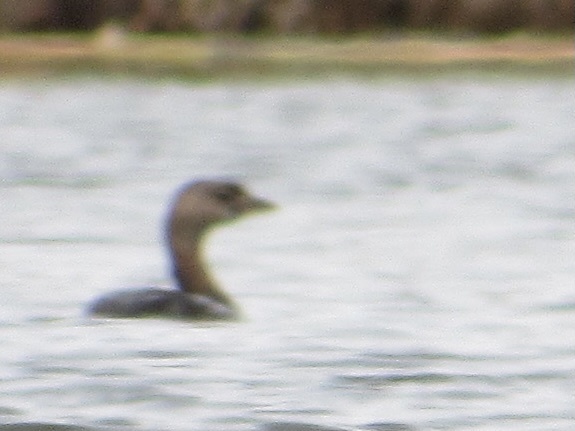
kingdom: Animalia
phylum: Chordata
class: Aves
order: Podicipediformes
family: Podicipedidae
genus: Podilymbus
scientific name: Podilymbus podiceps
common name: Pied-billed grebe
